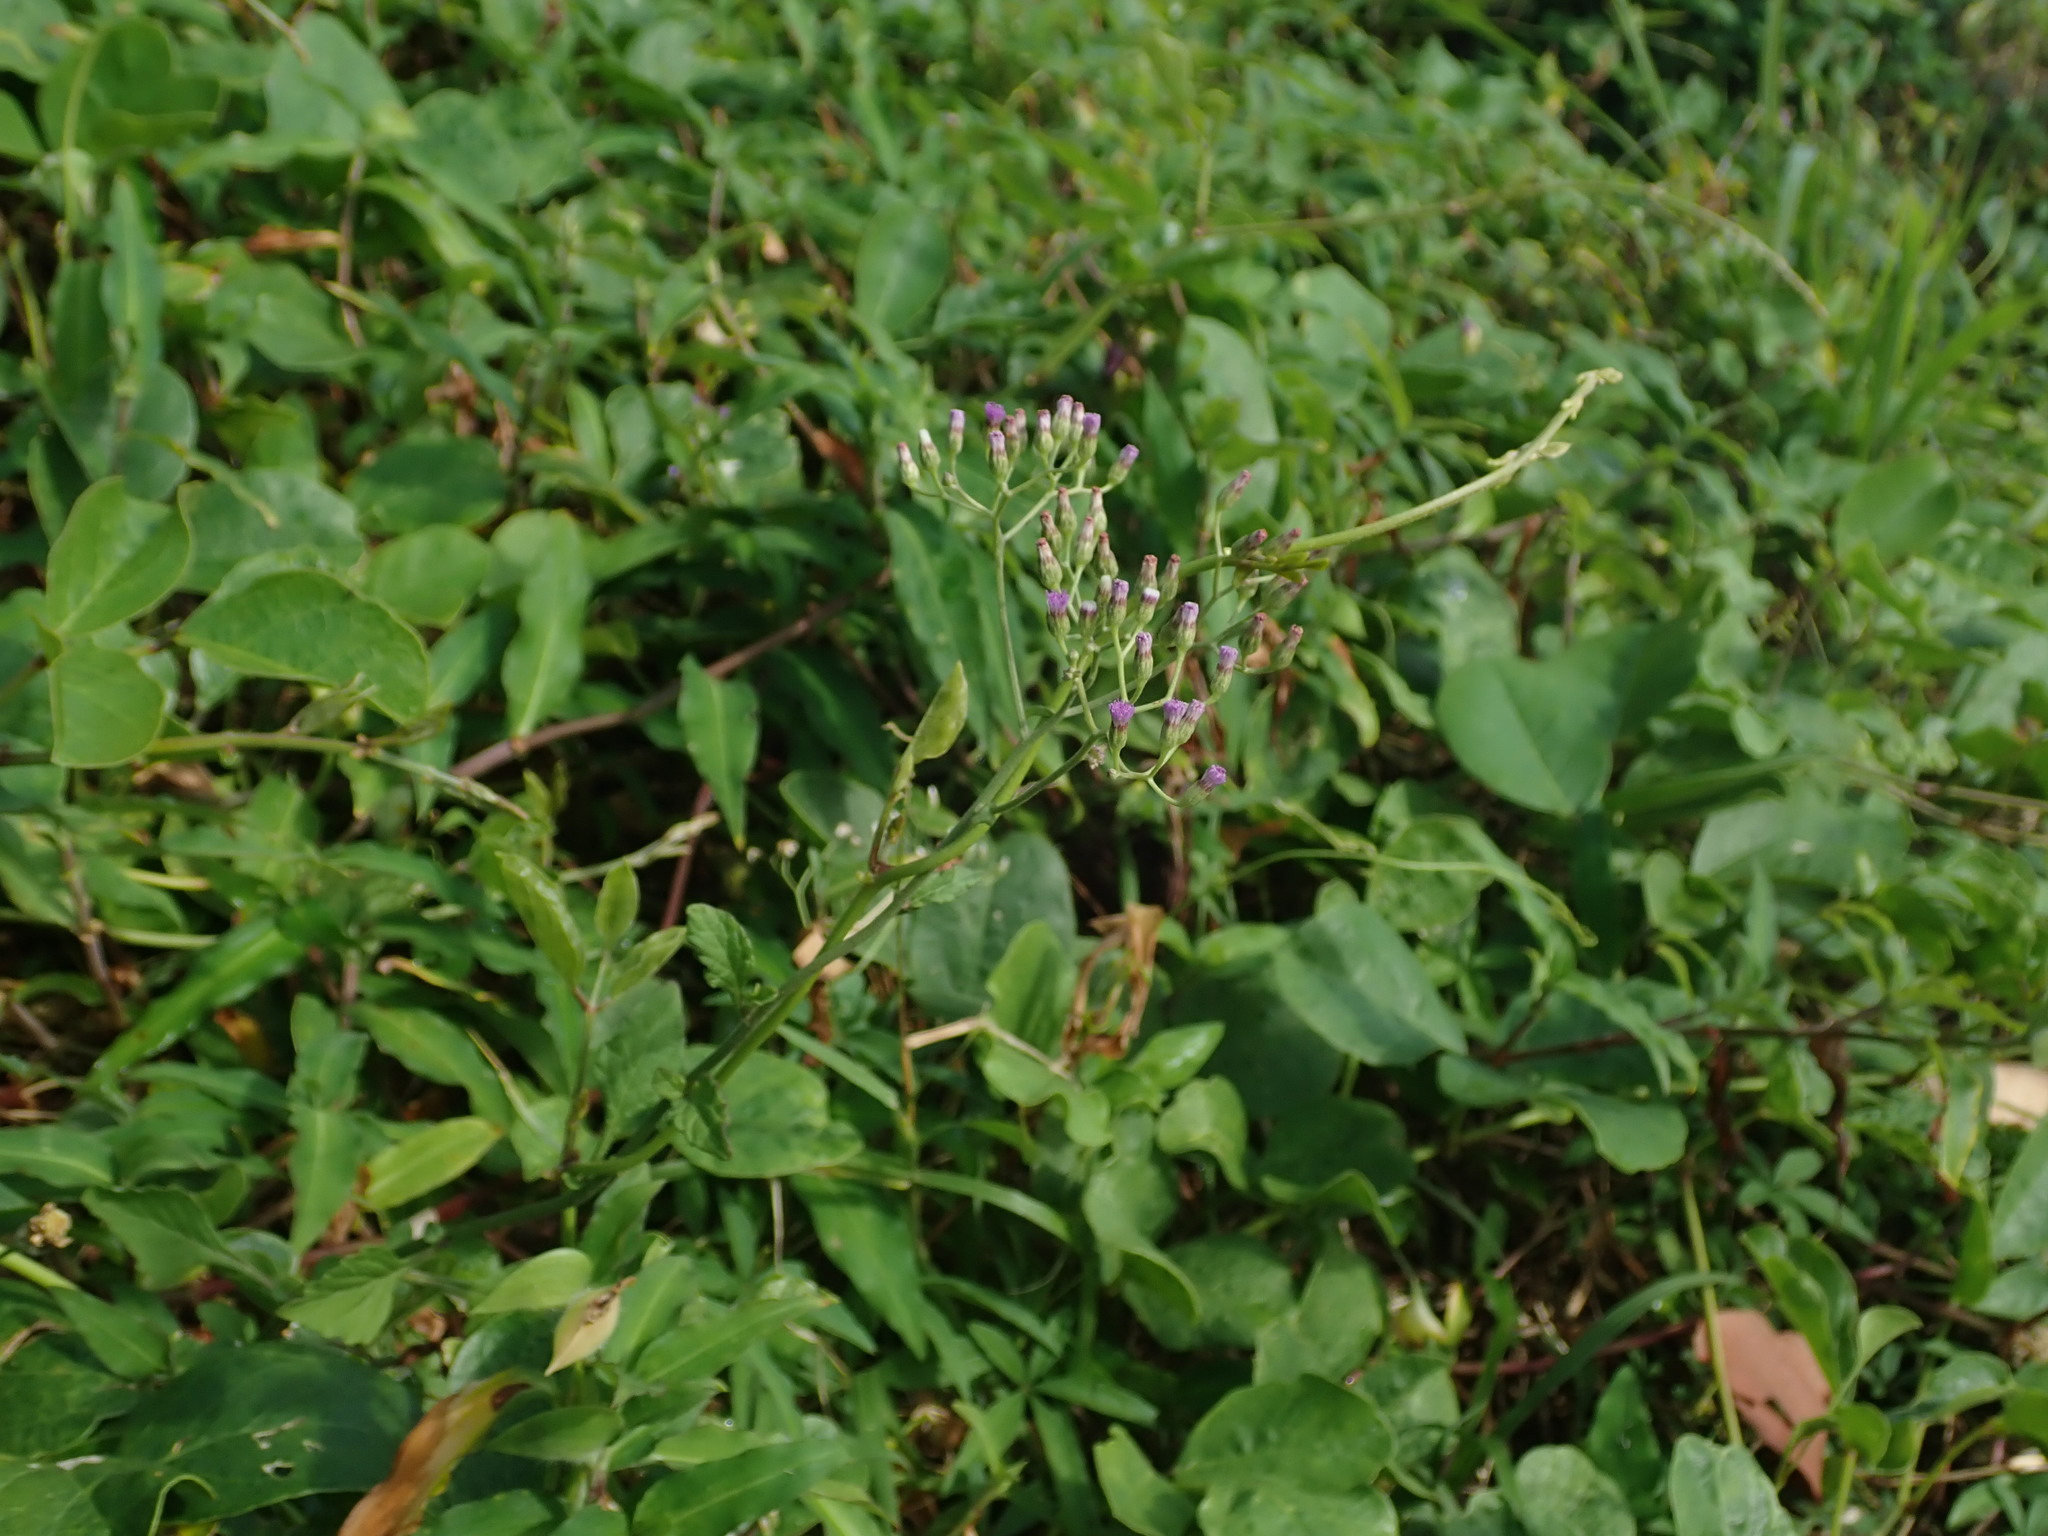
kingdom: Plantae
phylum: Tracheophyta
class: Magnoliopsida
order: Asterales
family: Asteraceae
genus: Cyanthillium
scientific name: Cyanthillium cinereum
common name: Little ironweed
